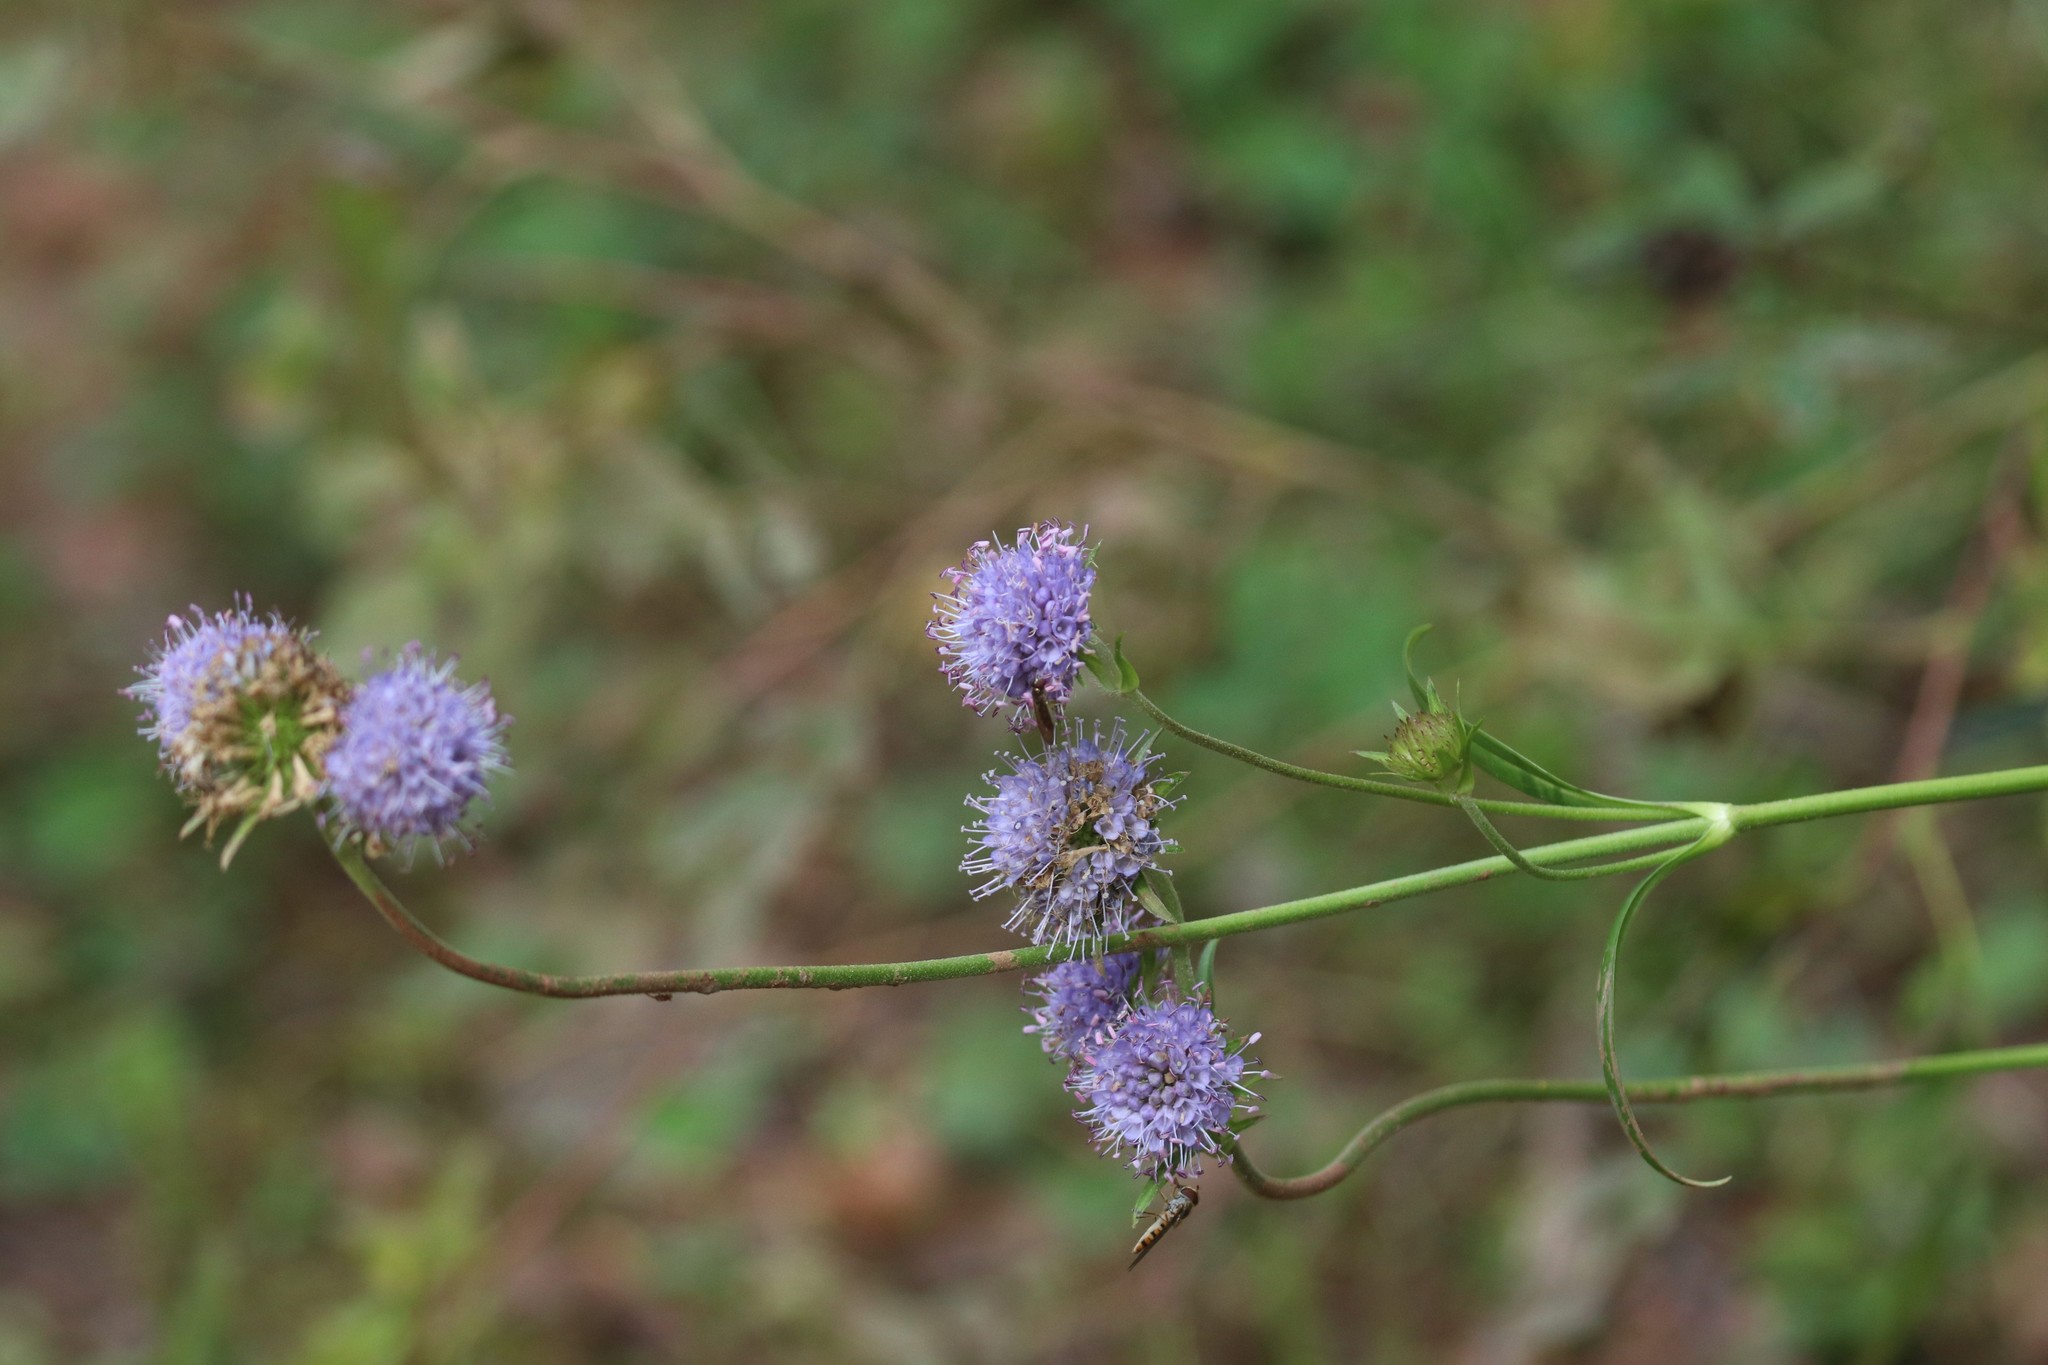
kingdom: Plantae
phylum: Tracheophyta
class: Magnoliopsida
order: Dipsacales
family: Caprifoliaceae
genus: Succisa
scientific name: Succisa pratensis
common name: Devil's-bit
